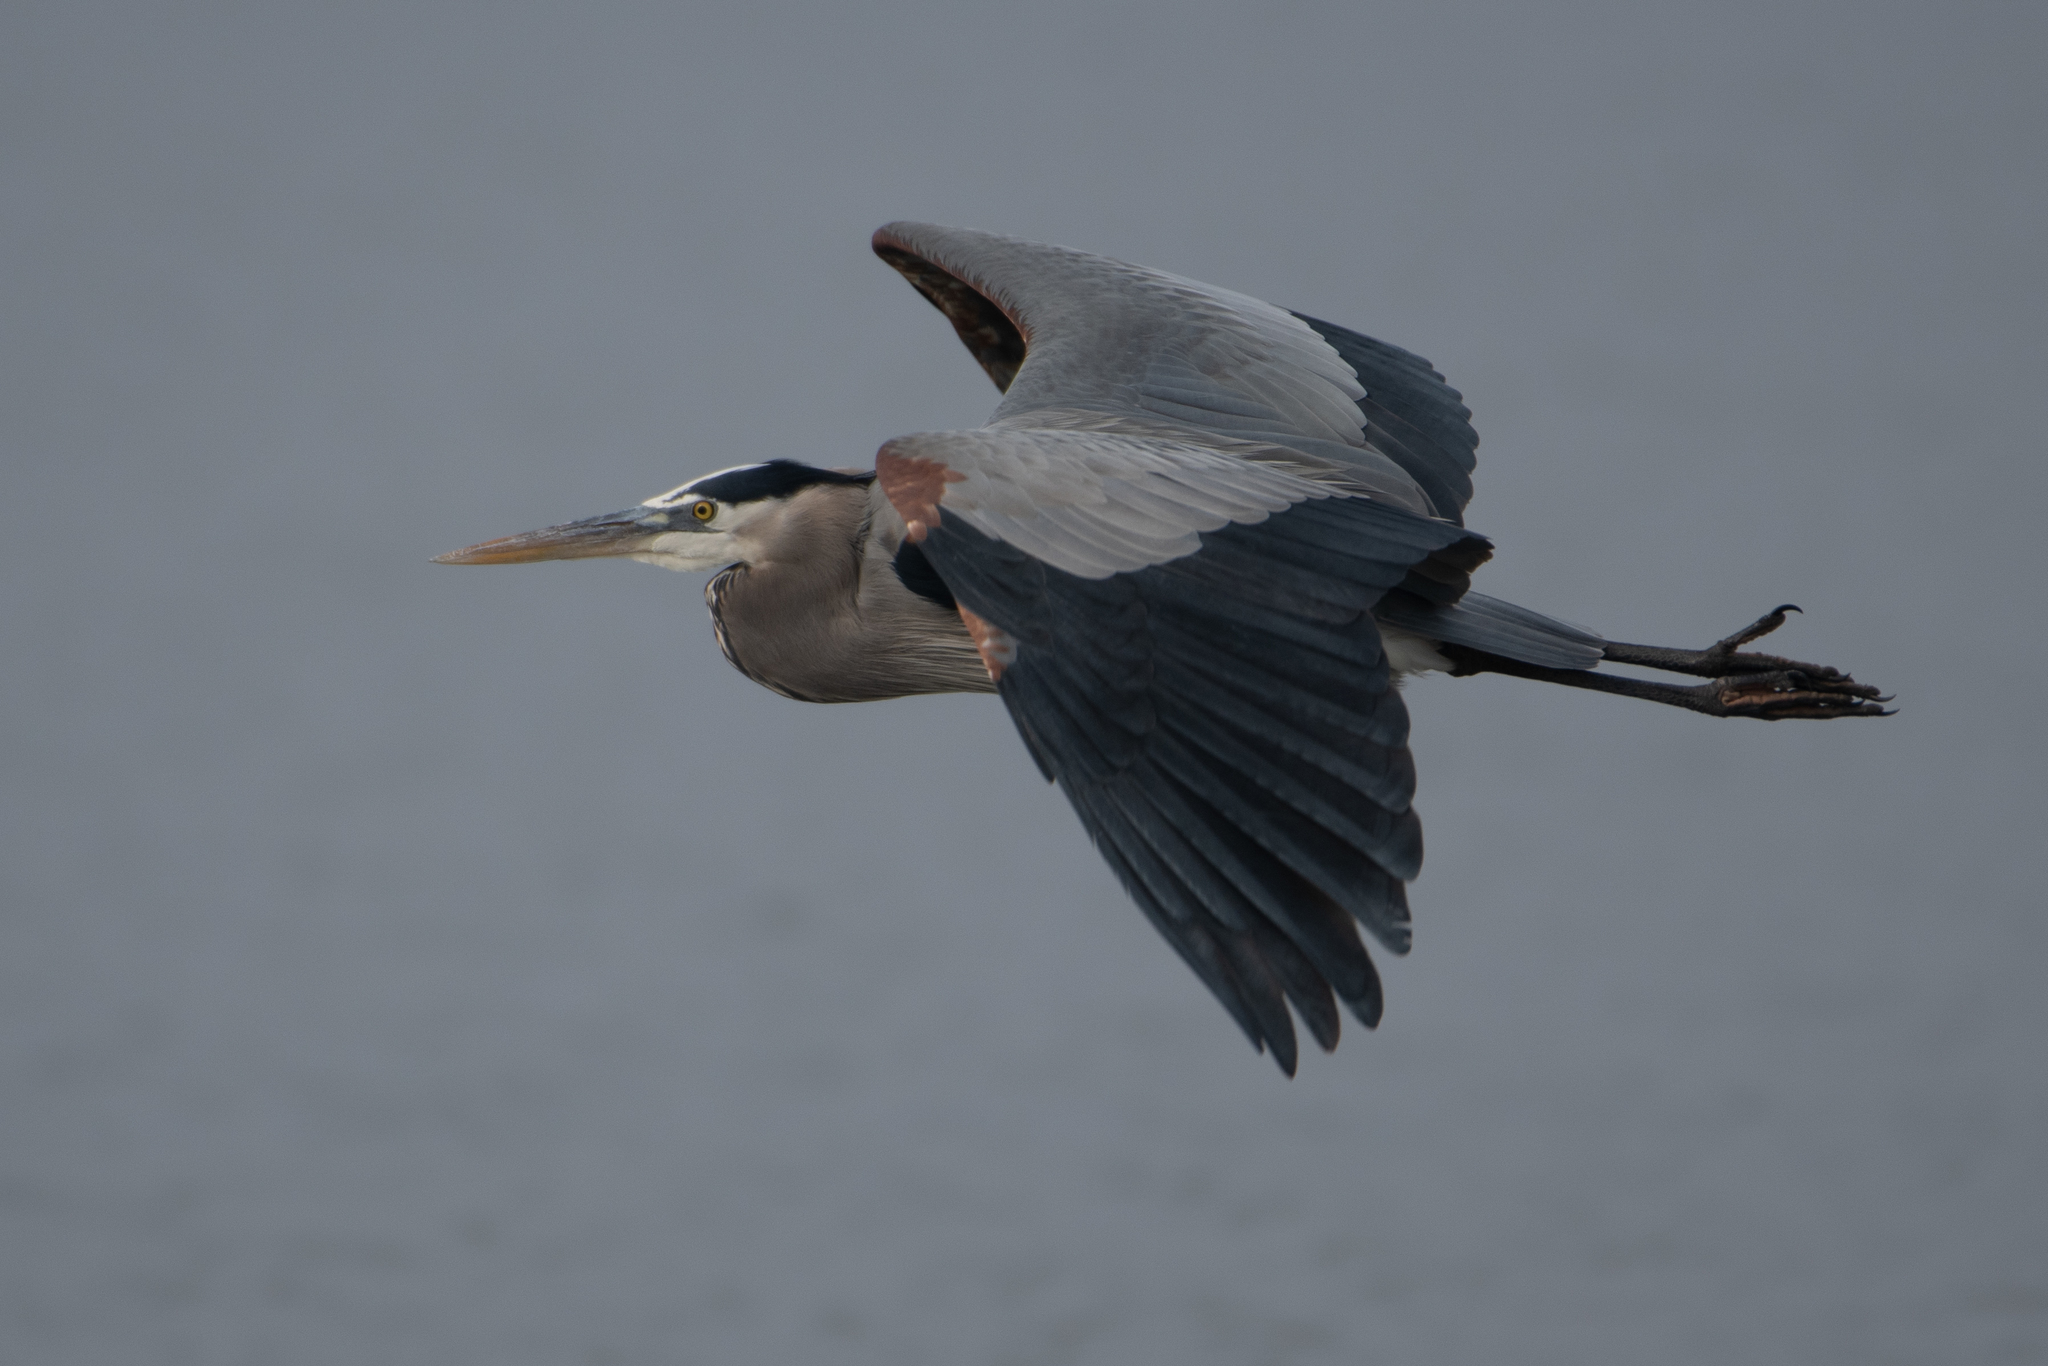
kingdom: Animalia
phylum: Chordata
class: Aves
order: Pelecaniformes
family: Ardeidae
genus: Ardea
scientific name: Ardea herodias
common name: Great blue heron
